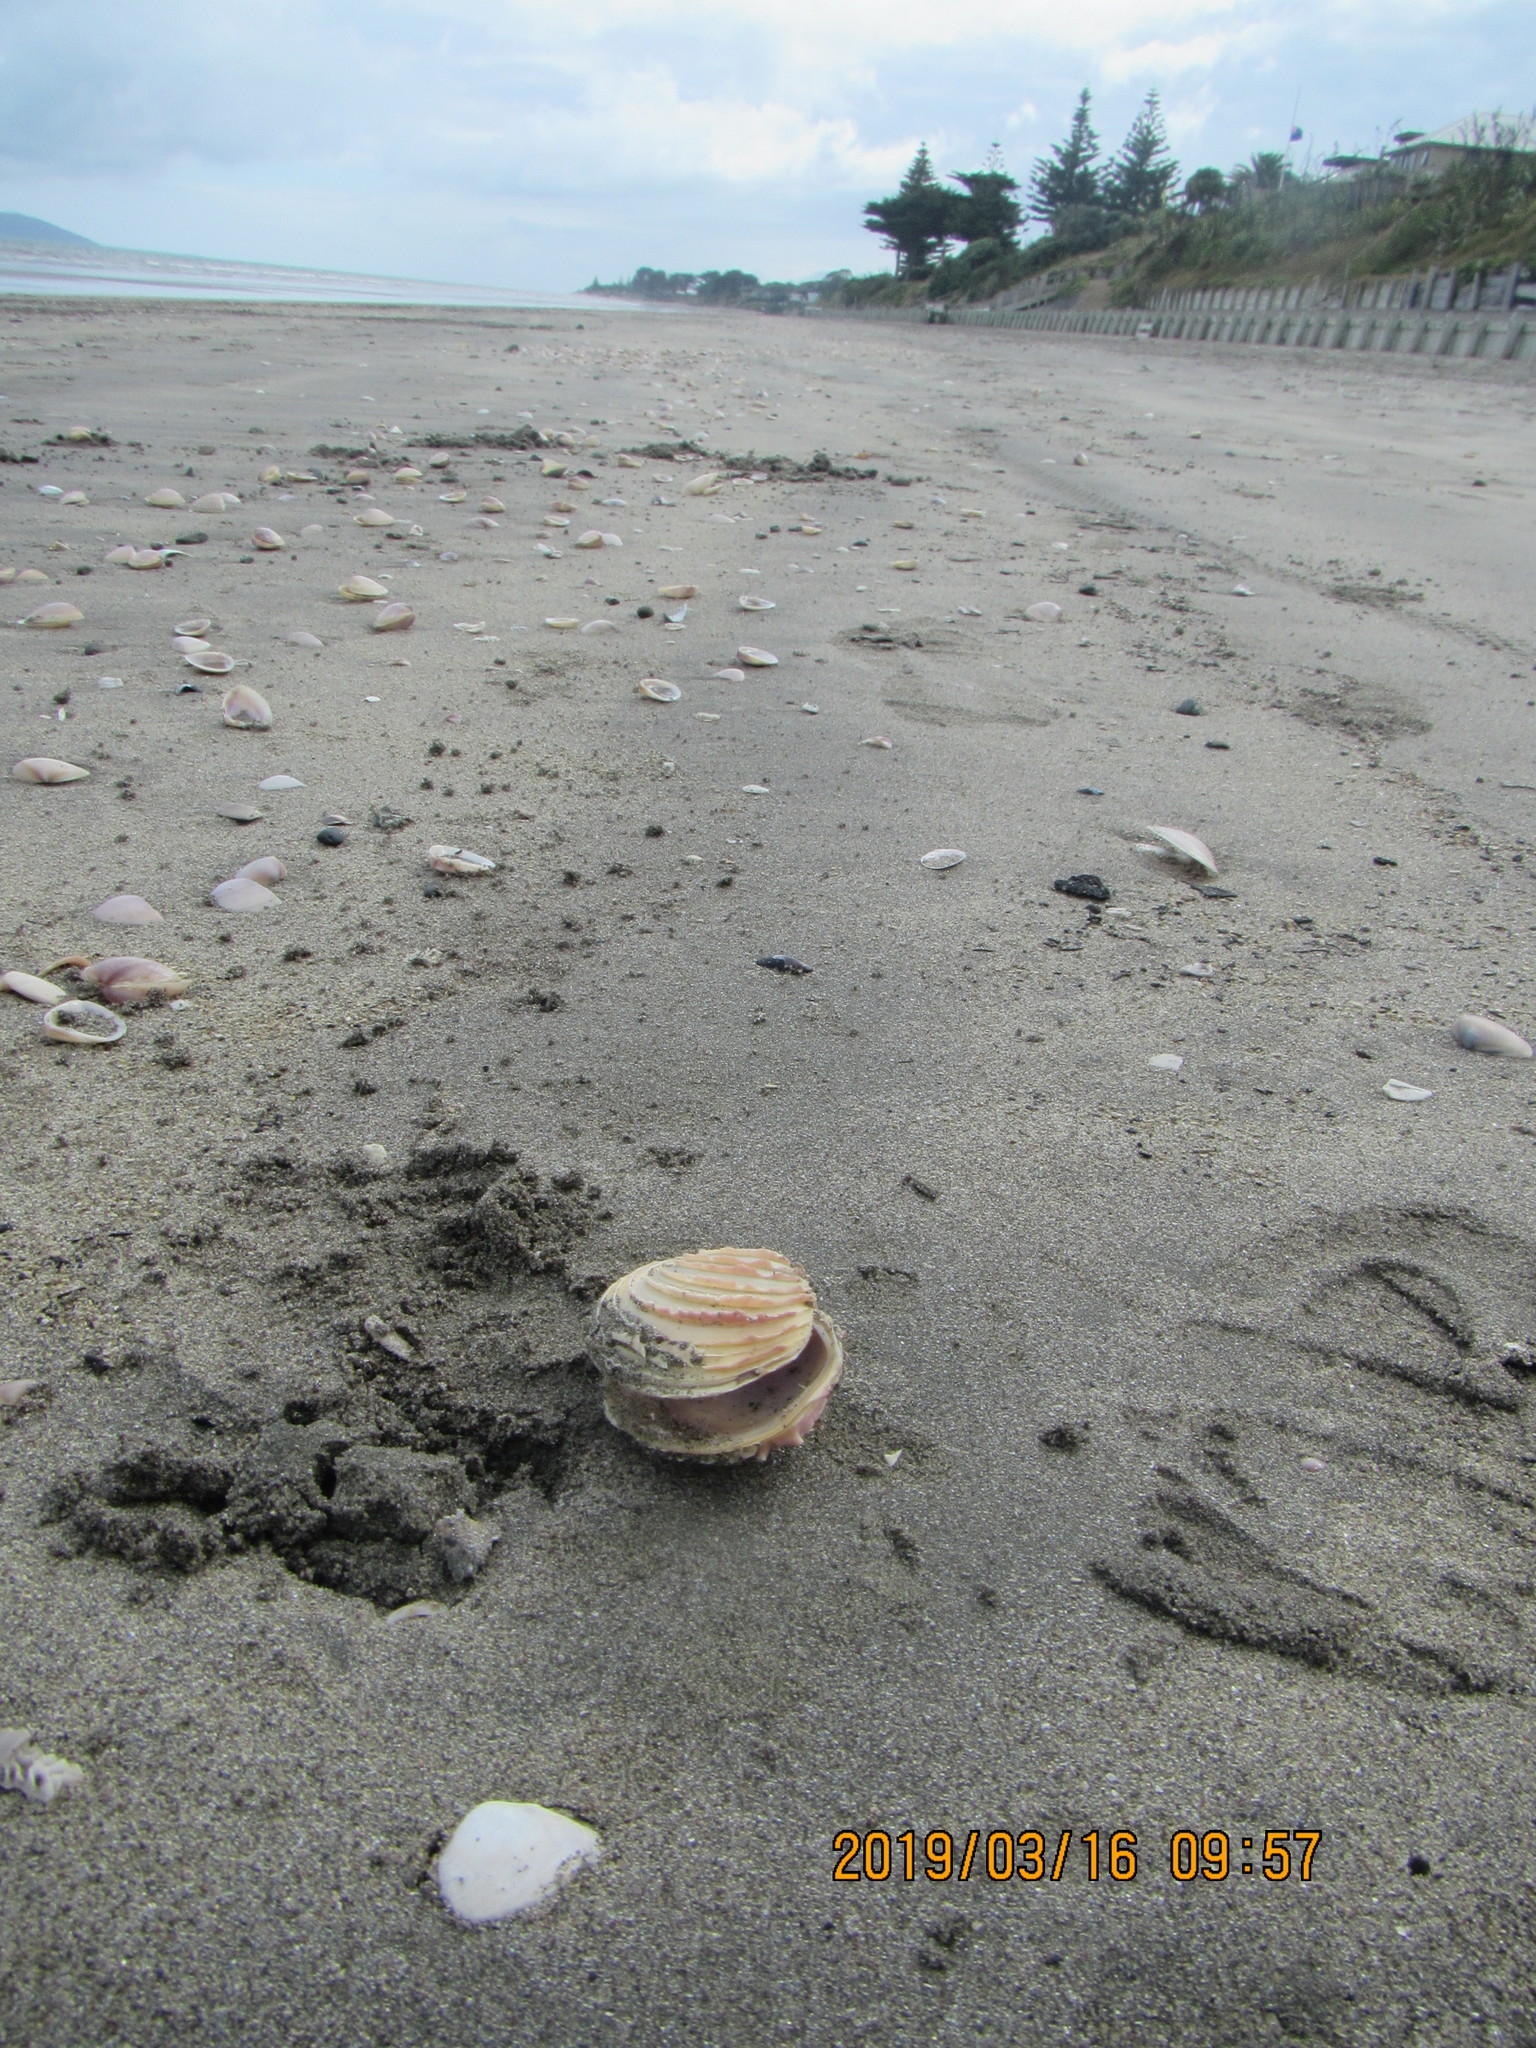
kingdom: Animalia
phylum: Mollusca
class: Bivalvia
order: Venerida
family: Veneridae
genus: Bassina
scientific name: Bassina yatei
